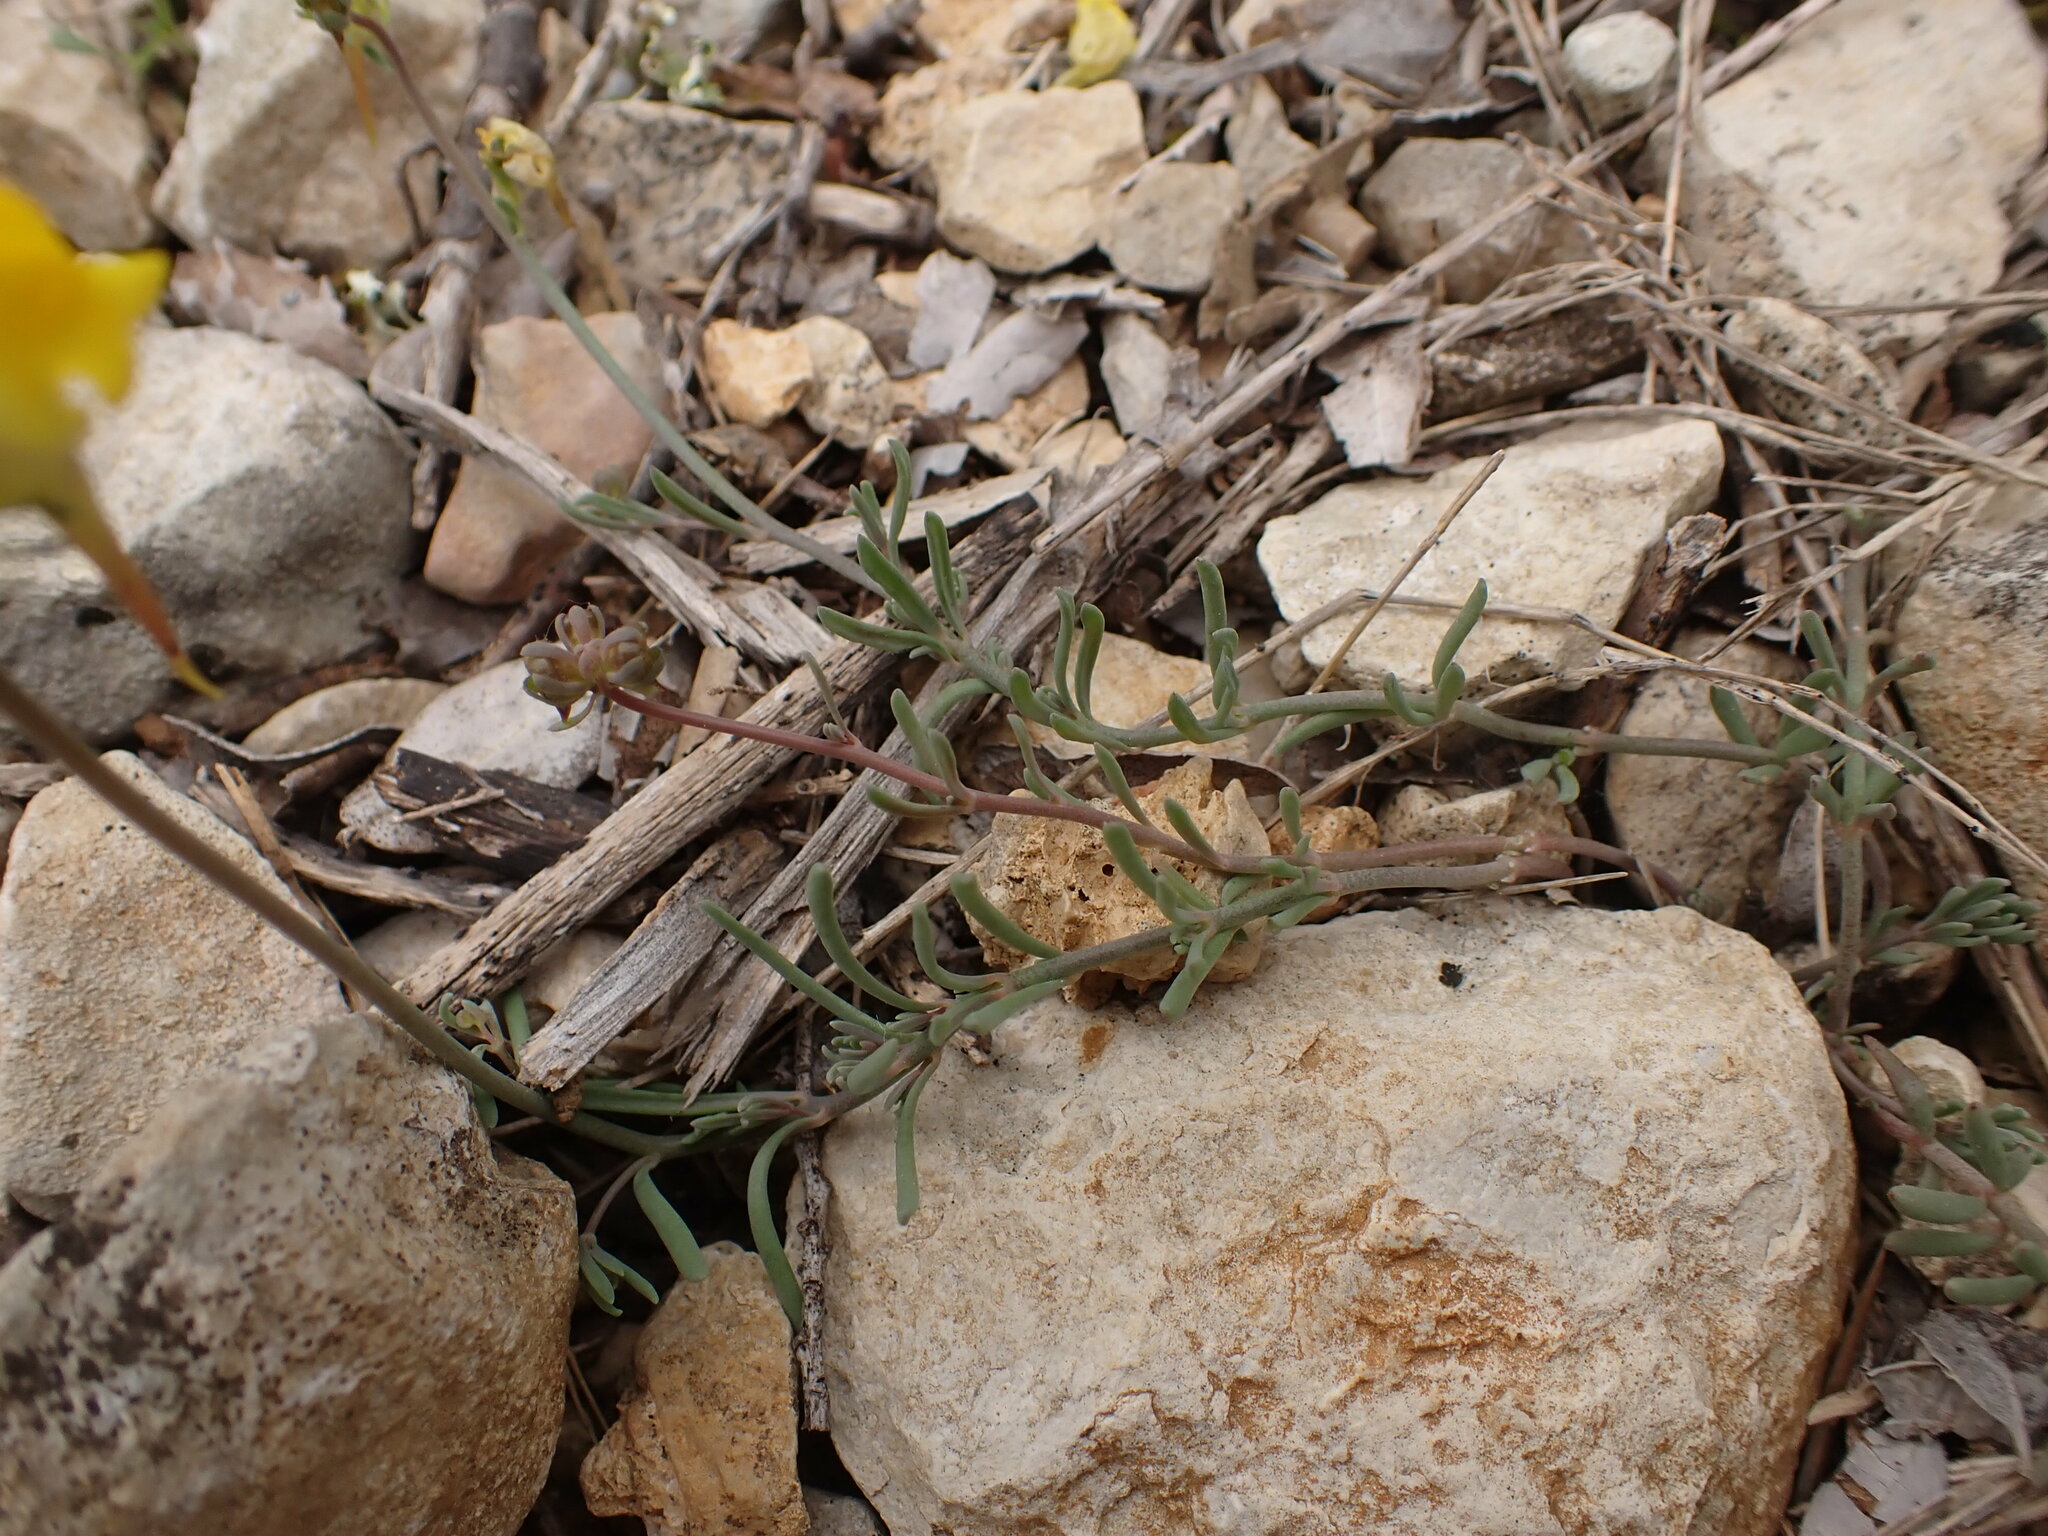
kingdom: Plantae
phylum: Tracheophyta
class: Magnoliopsida
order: Lamiales
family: Plantaginaceae
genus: Linaria
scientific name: Linaria supina
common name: Prostrate toadflax
